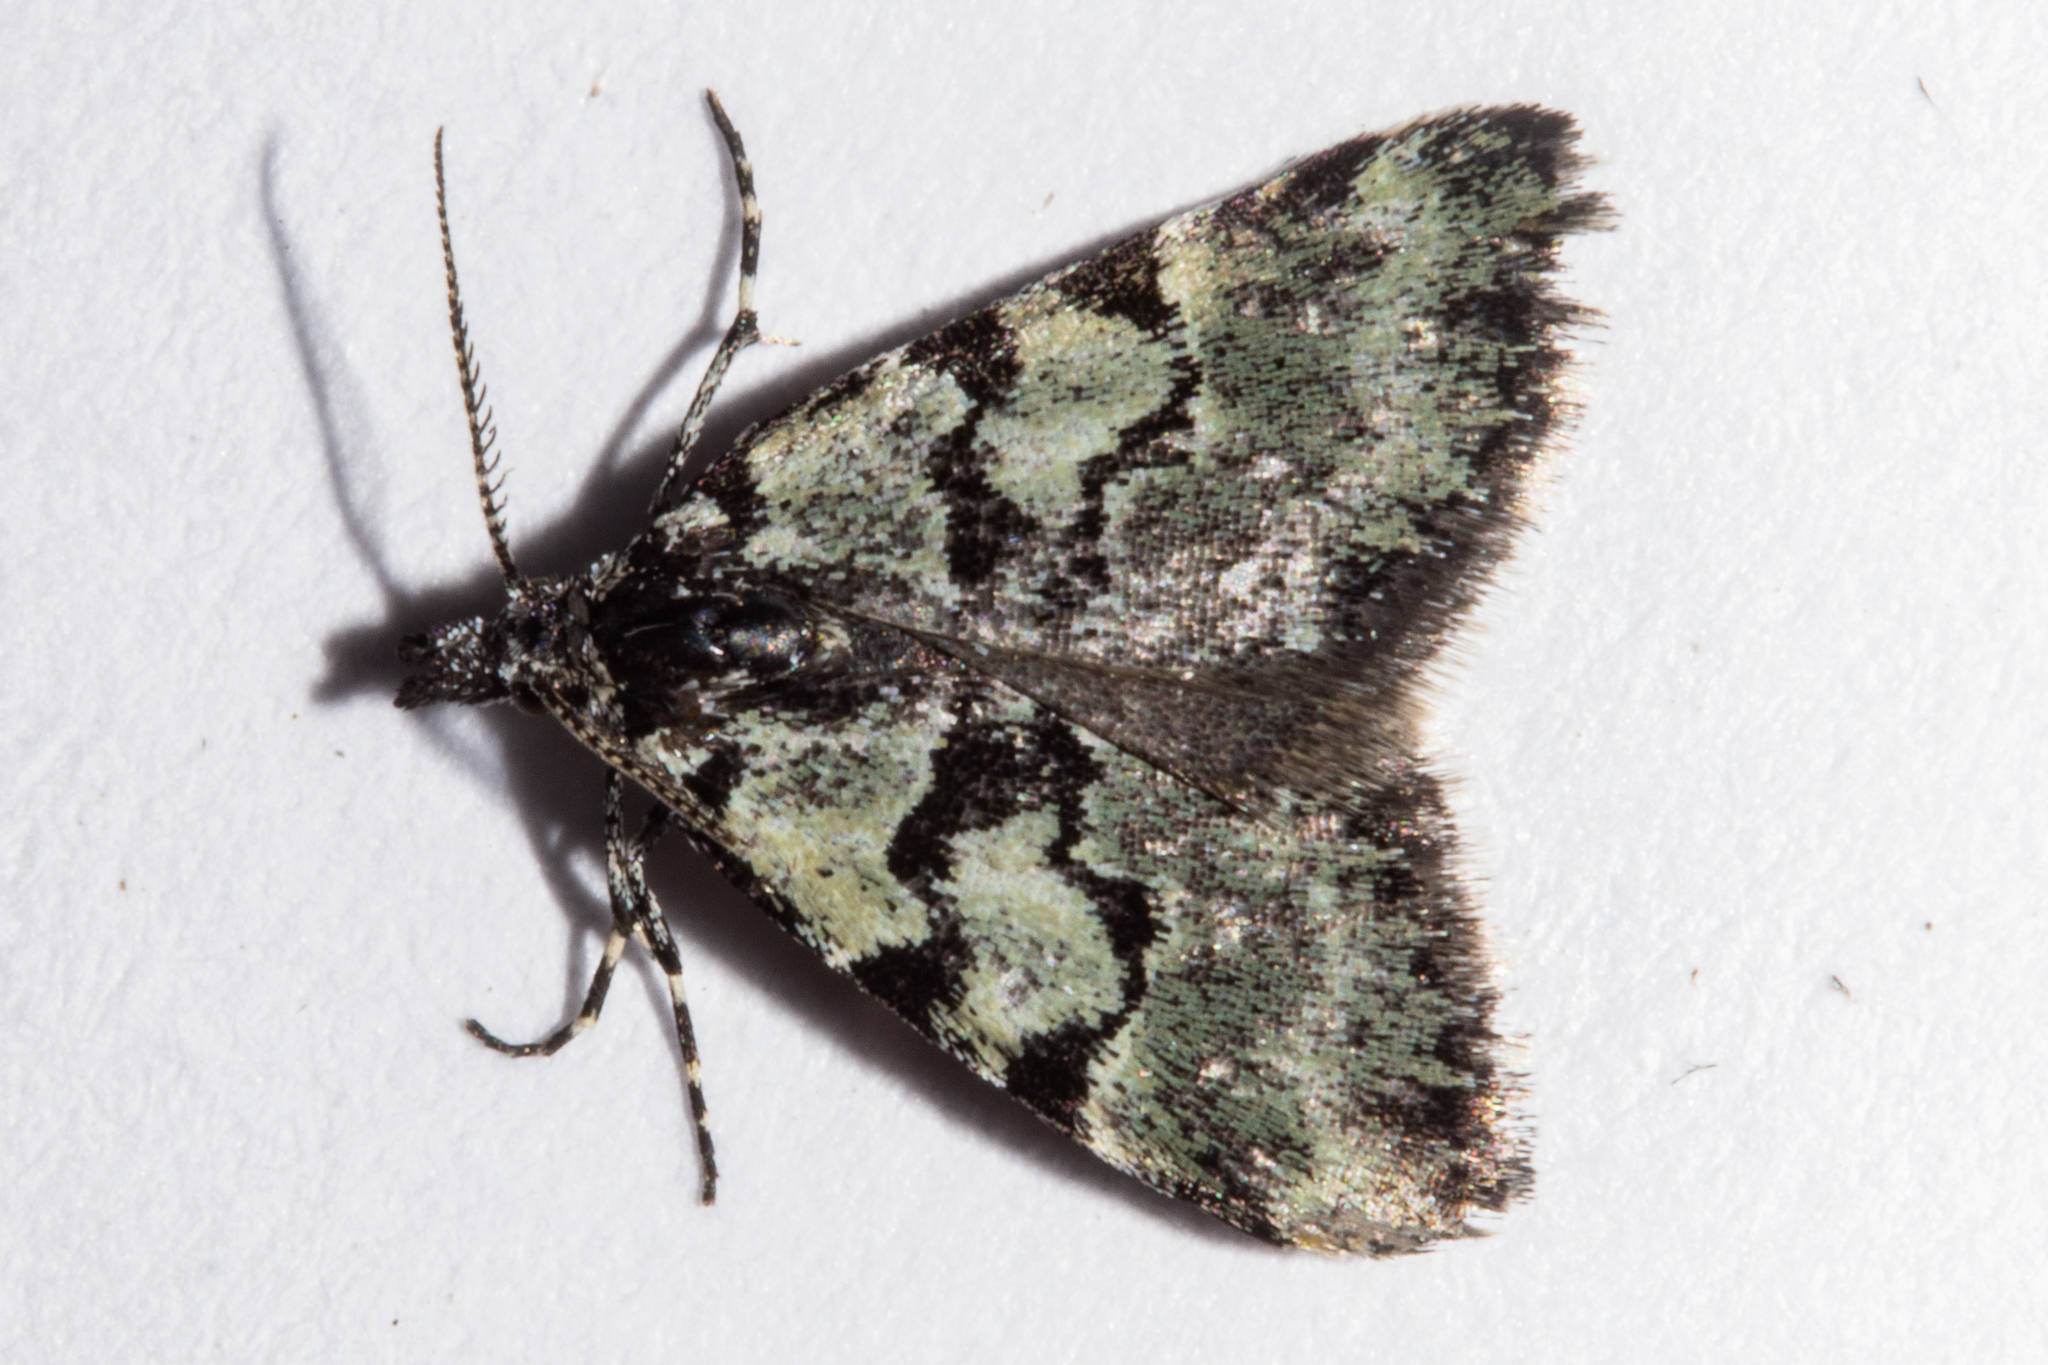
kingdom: Animalia
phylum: Arthropoda
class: Insecta
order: Lepidoptera
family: Geometridae
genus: Dichromodes
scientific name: Dichromodes gypsotis
